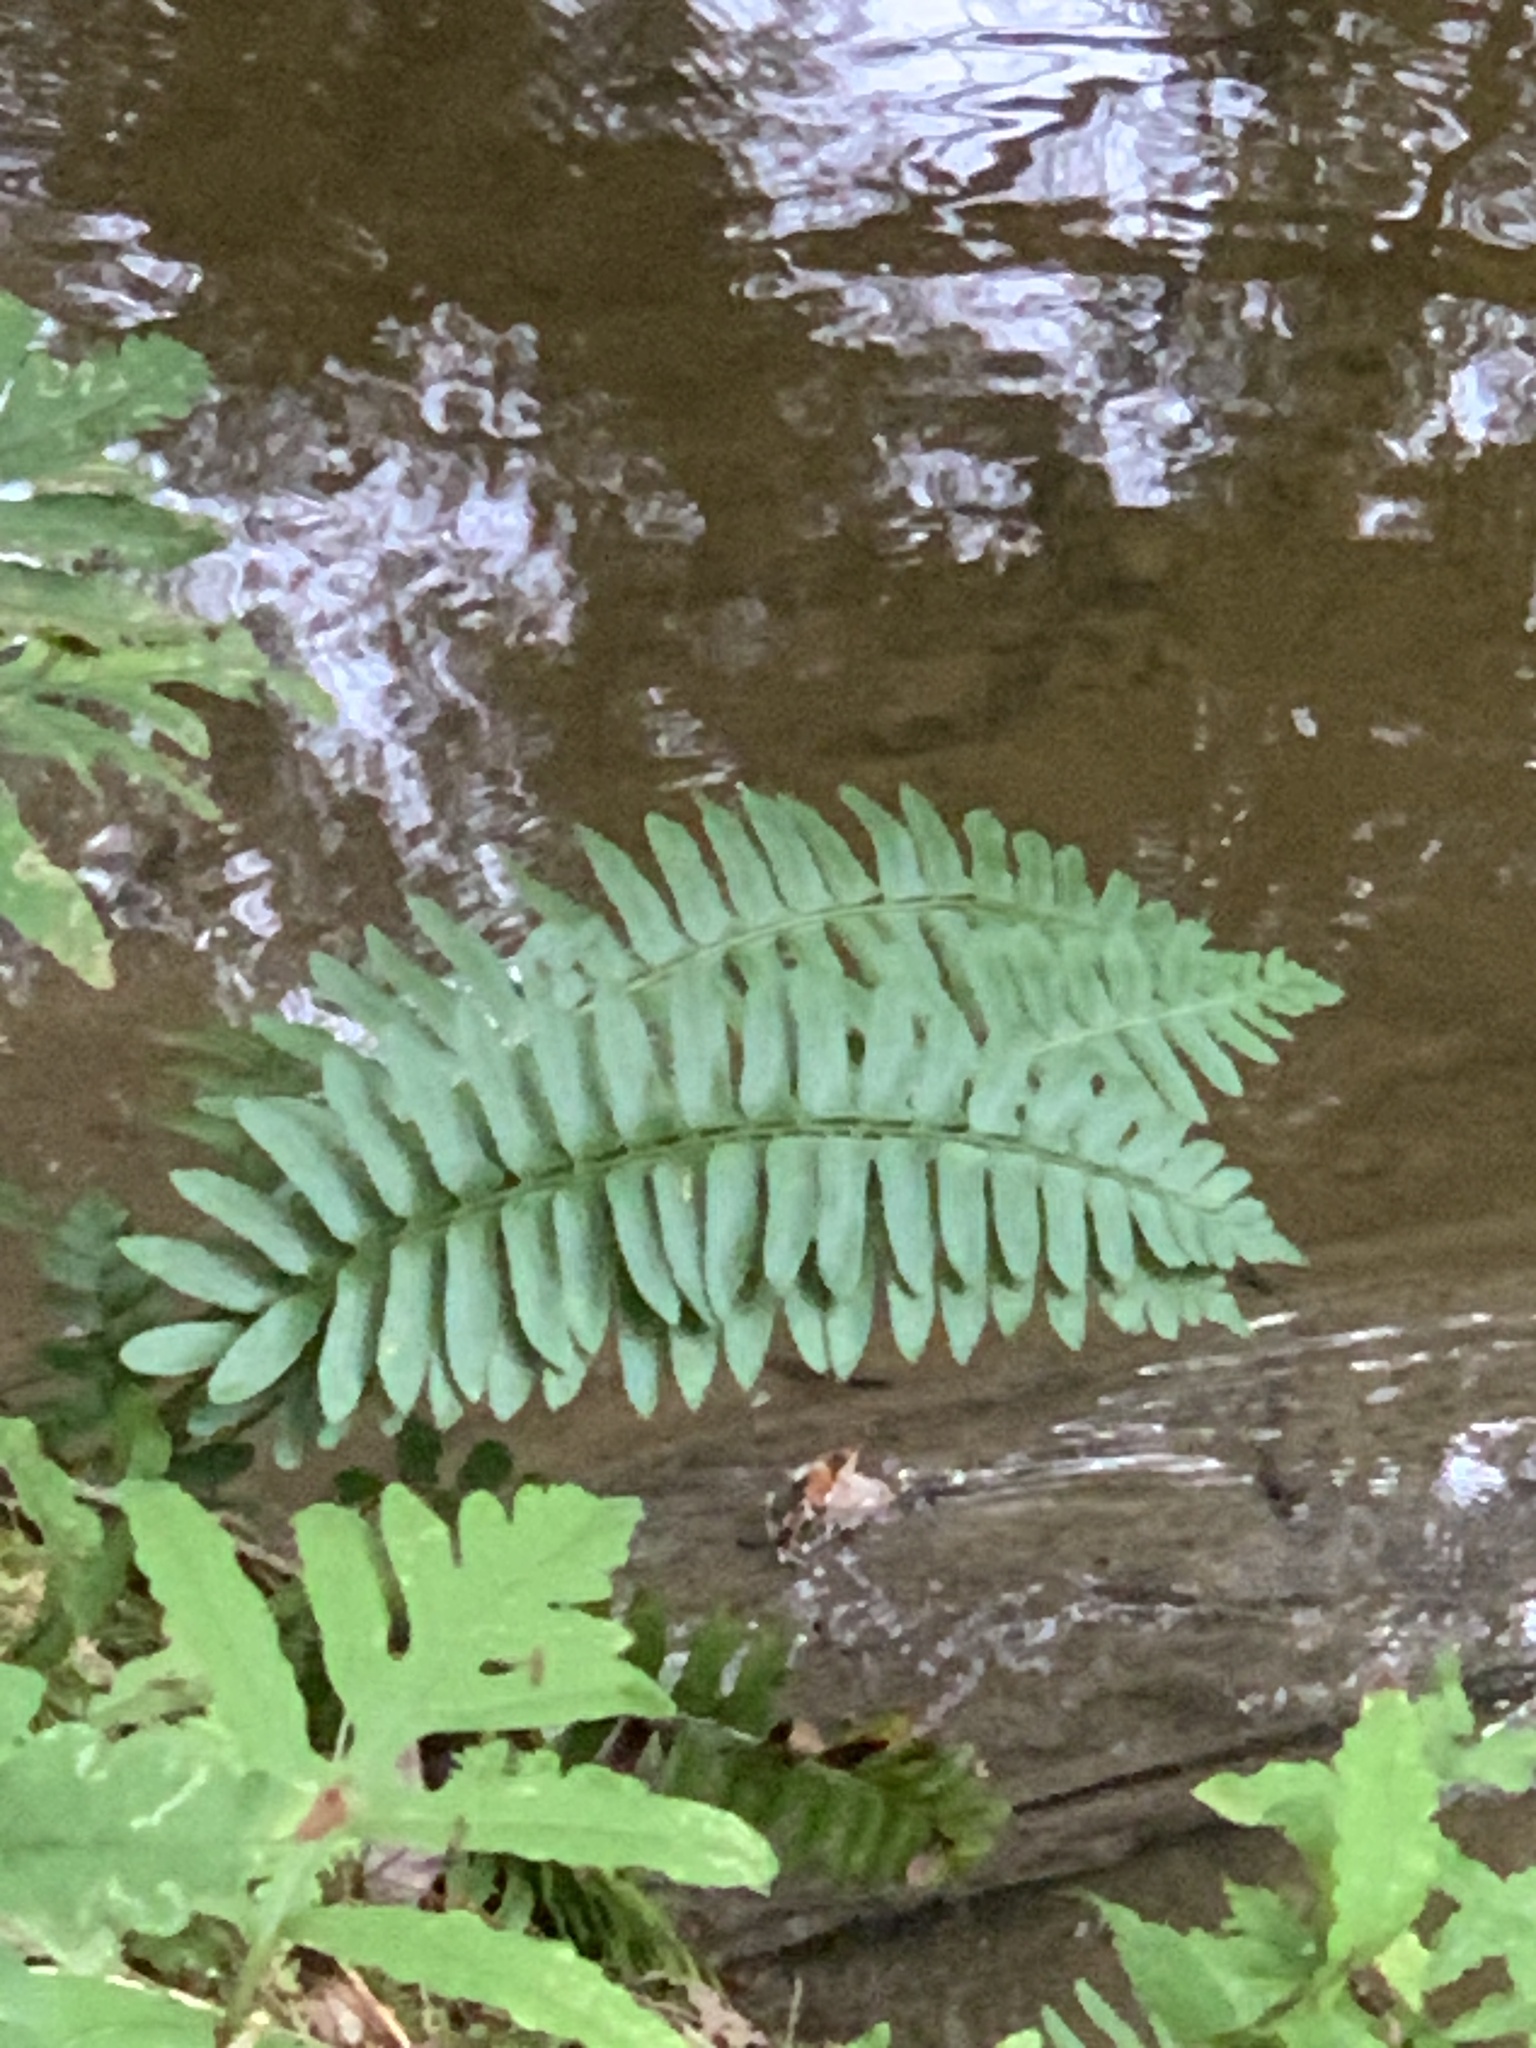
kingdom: Plantae
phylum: Tracheophyta
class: Polypodiopsida
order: Polypodiales
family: Dryopteridaceae
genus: Polystichum
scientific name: Polystichum acrostichoides
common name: Christmas fern
